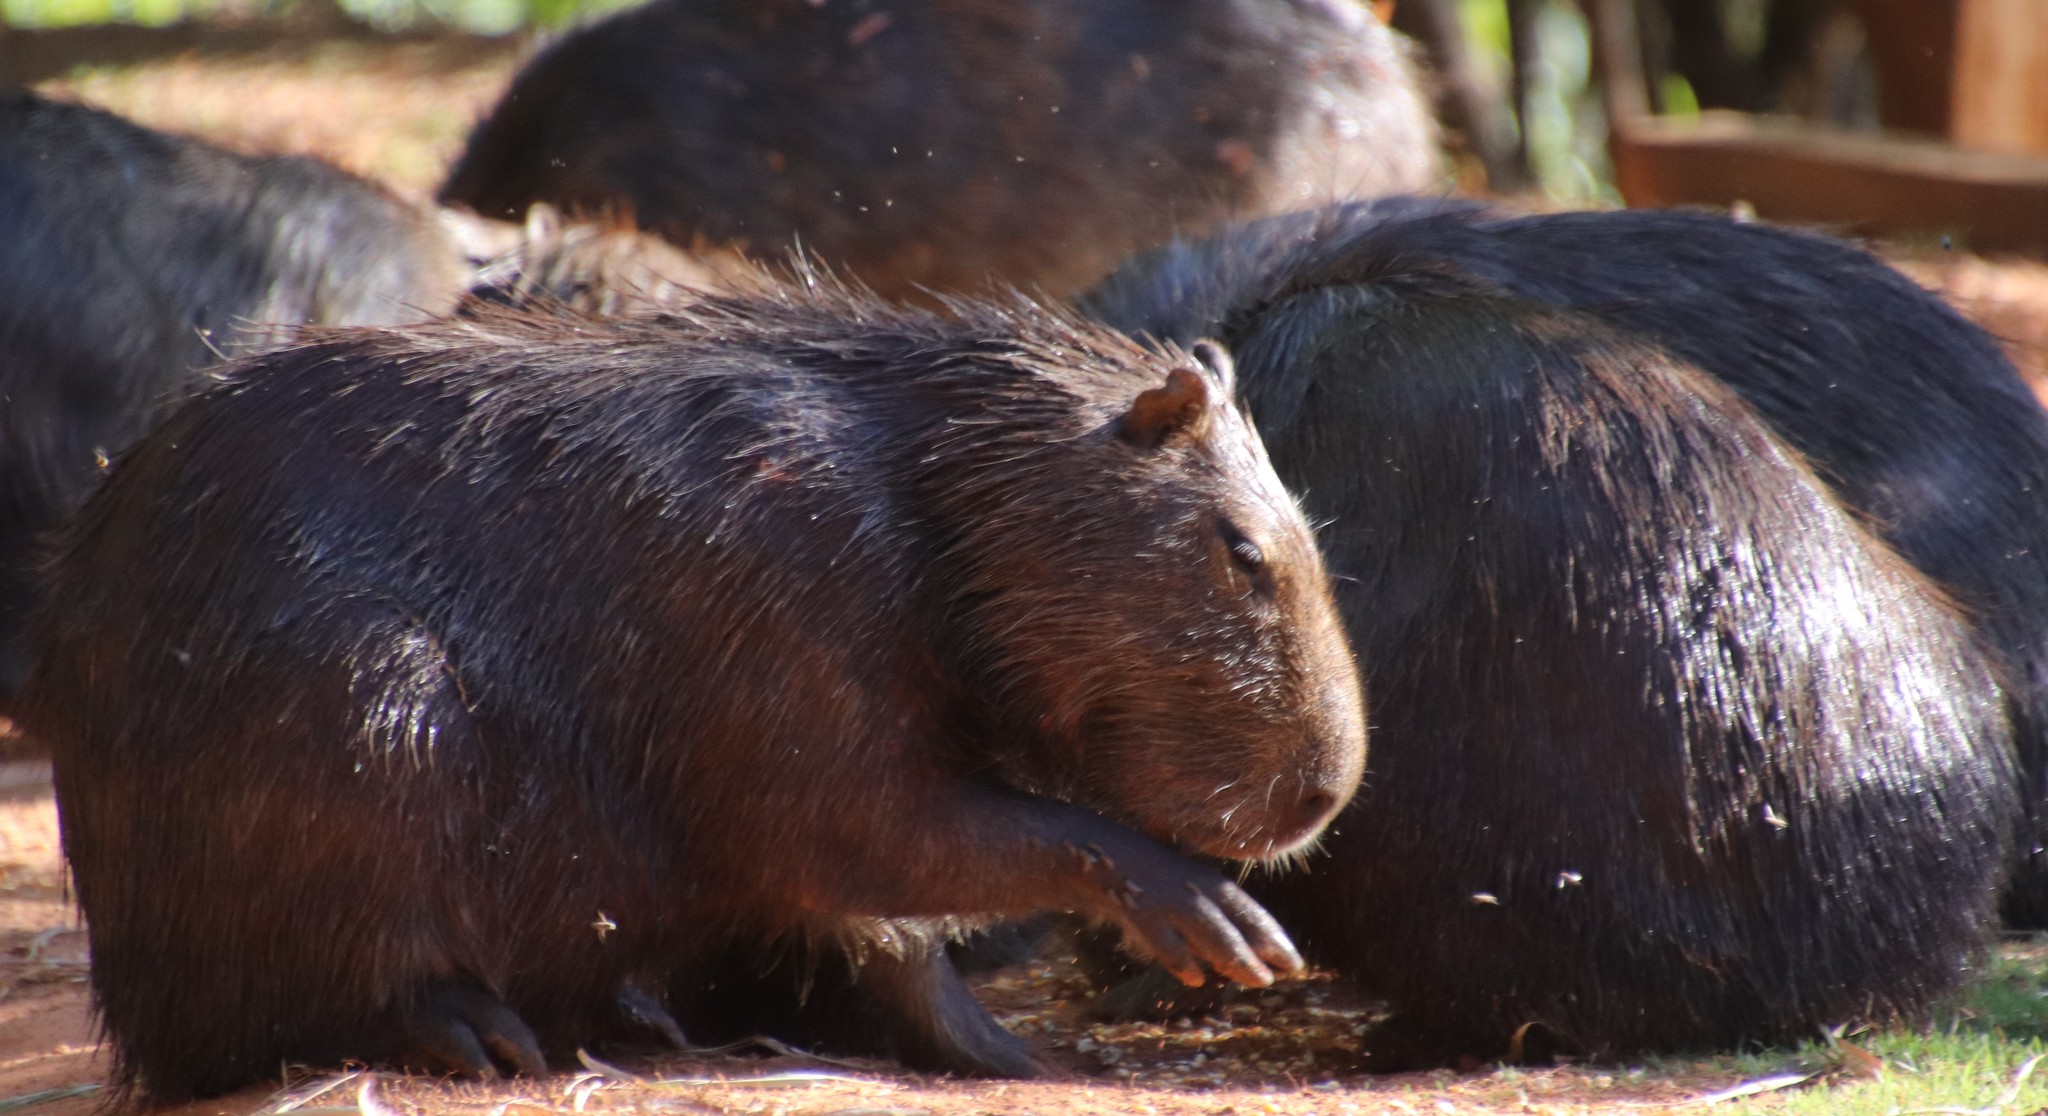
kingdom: Animalia
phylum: Chordata
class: Mammalia
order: Rodentia
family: Caviidae
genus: Hydrochoerus
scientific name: Hydrochoerus hydrochaeris
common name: Capybara
